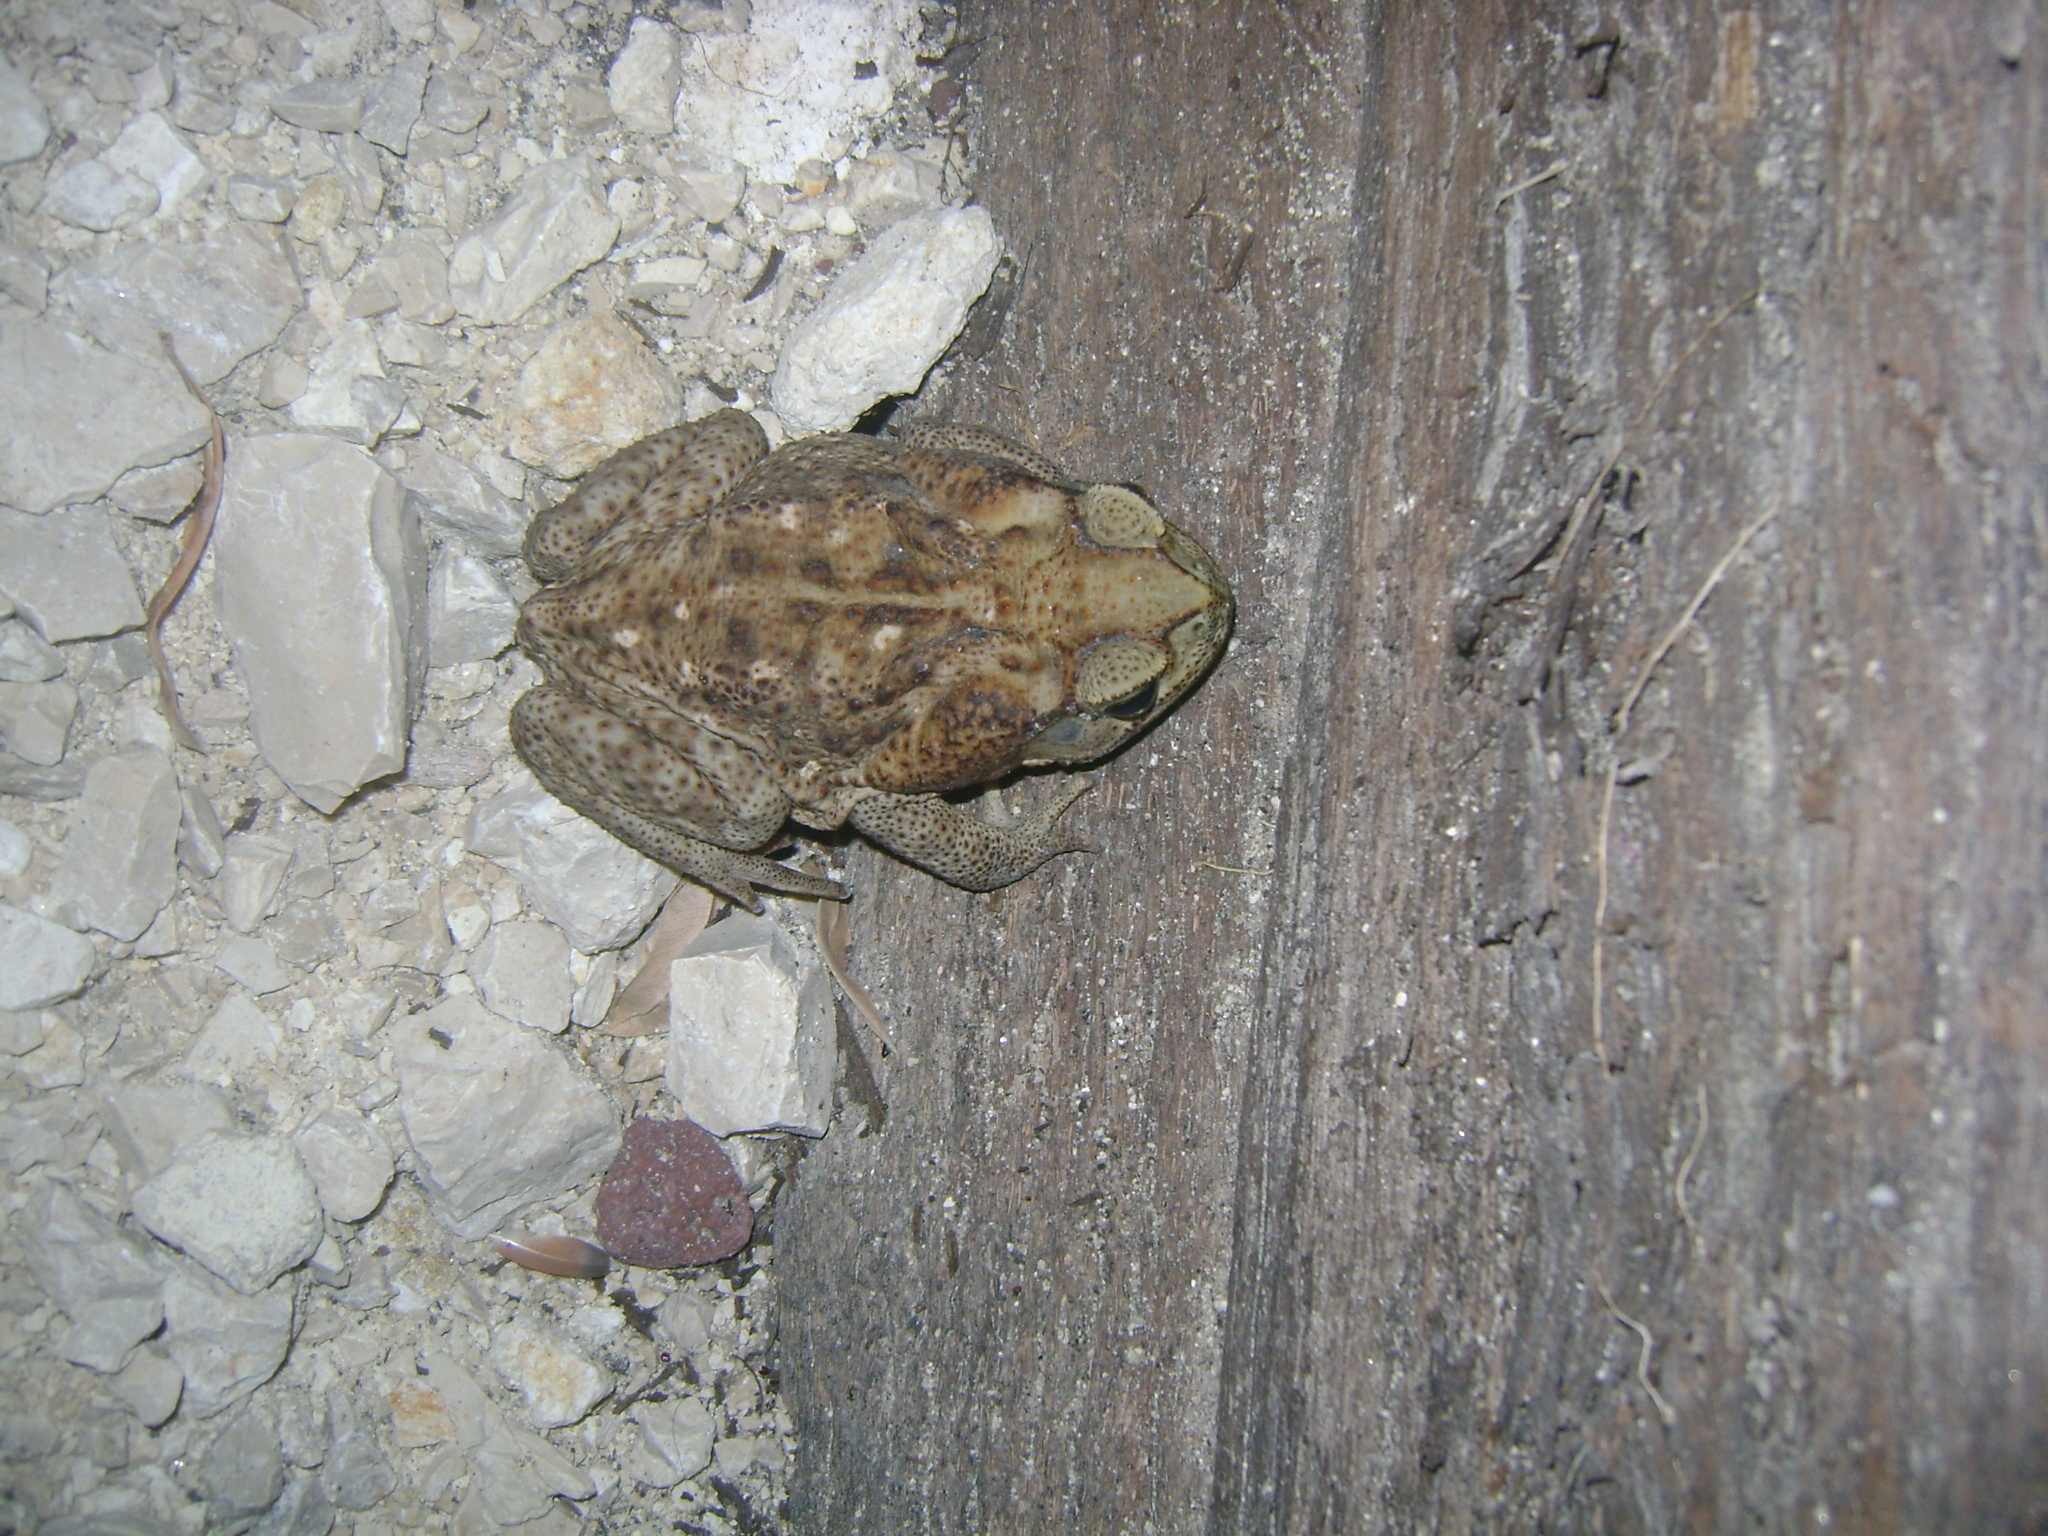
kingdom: Animalia
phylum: Chordata
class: Amphibia
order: Anura
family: Bufonidae
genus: Rhinella
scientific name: Rhinella horribilis
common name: Mesoamerican cane toad
